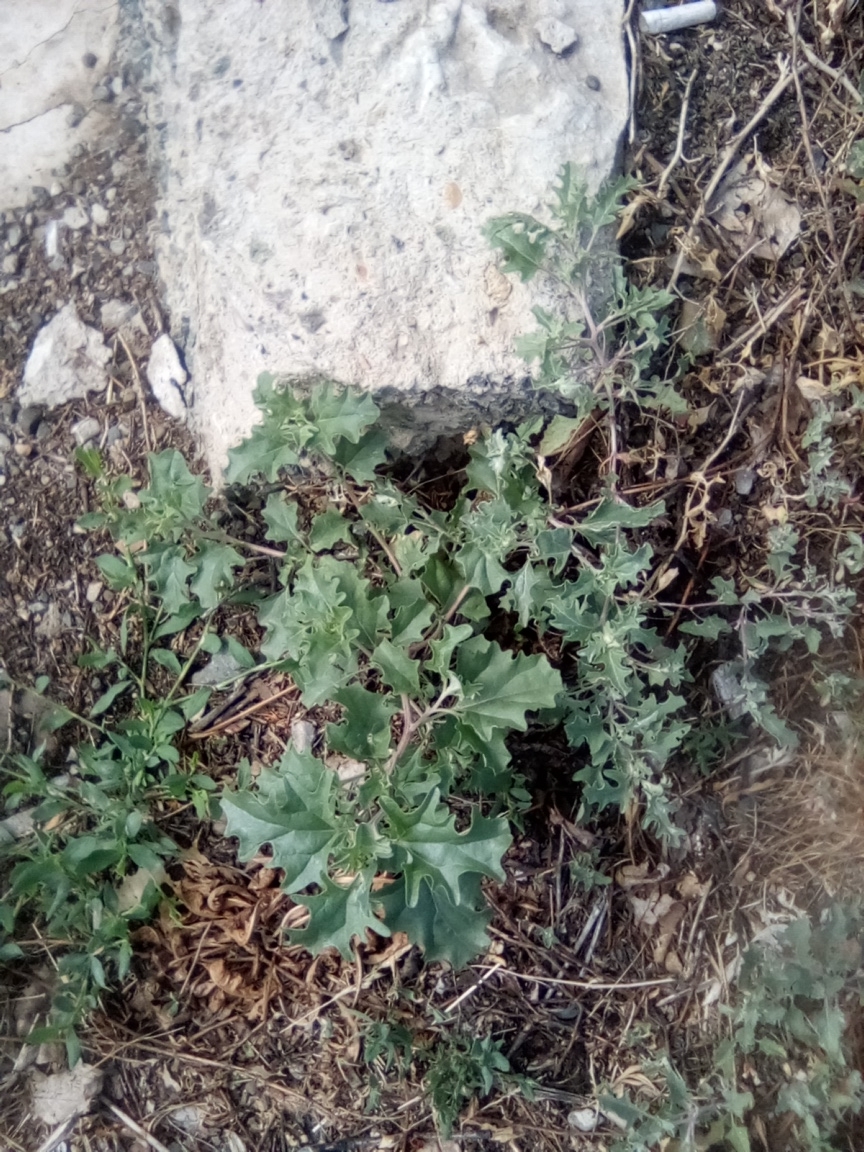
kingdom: Plantae
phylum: Tracheophyta
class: Magnoliopsida
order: Caryophyllales
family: Amaranthaceae
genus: Atriplex
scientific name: Atriplex tatarica
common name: Tatarian orache
